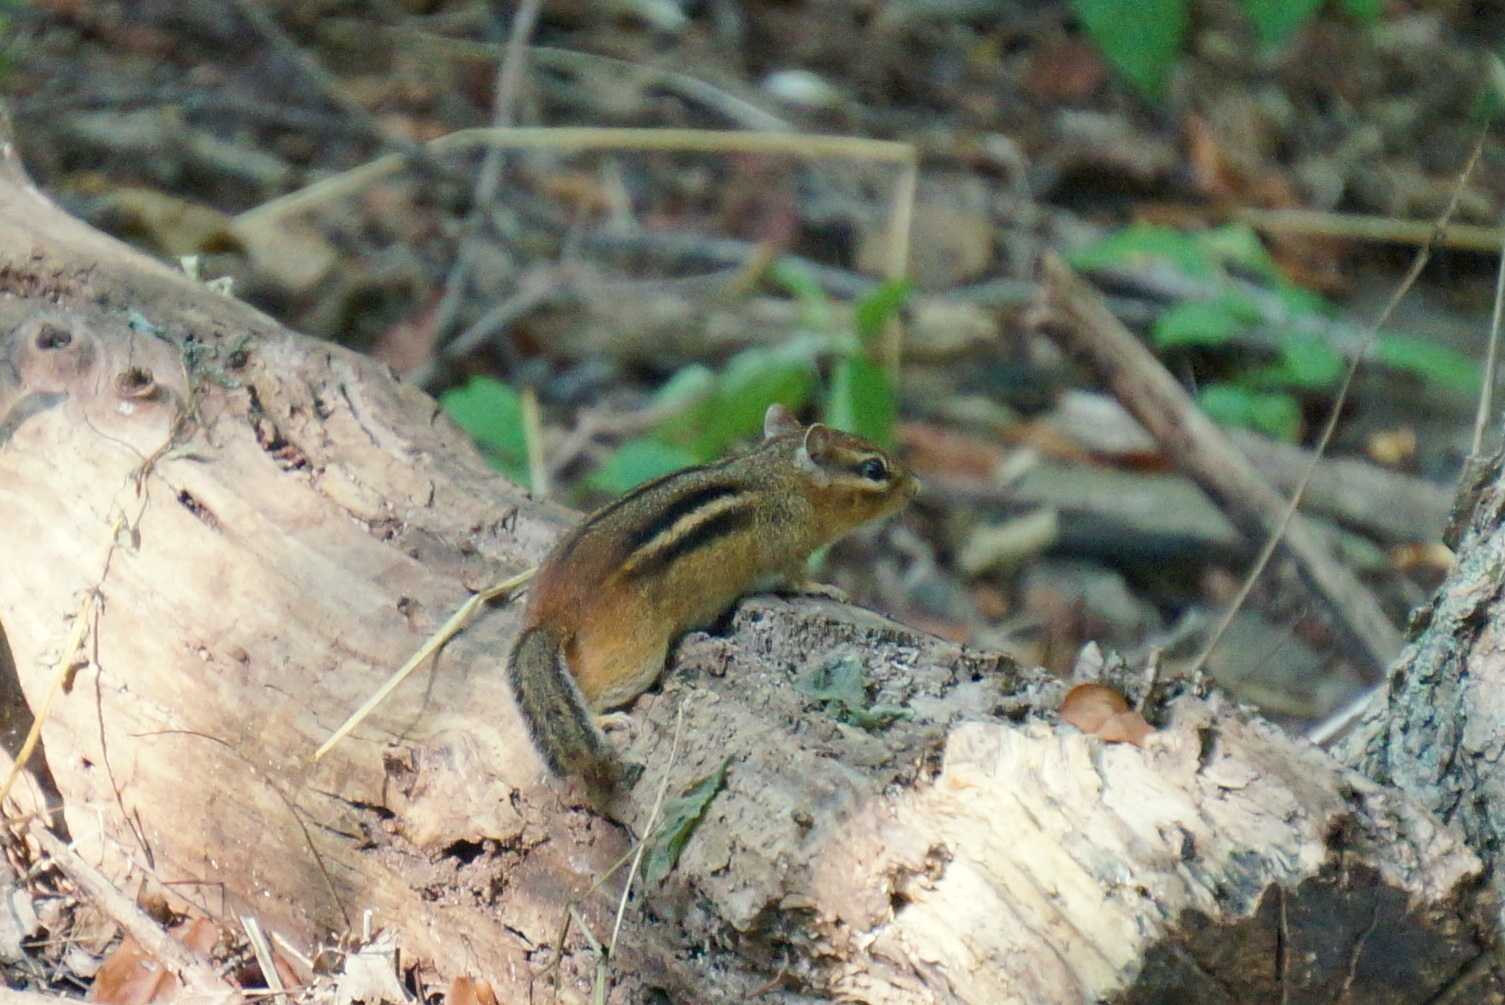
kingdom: Animalia
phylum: Chordata
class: Mammalia
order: Rodentia
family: Sciuridae
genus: Tamias
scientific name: Tamias striatus
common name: Eastern chipmunk
